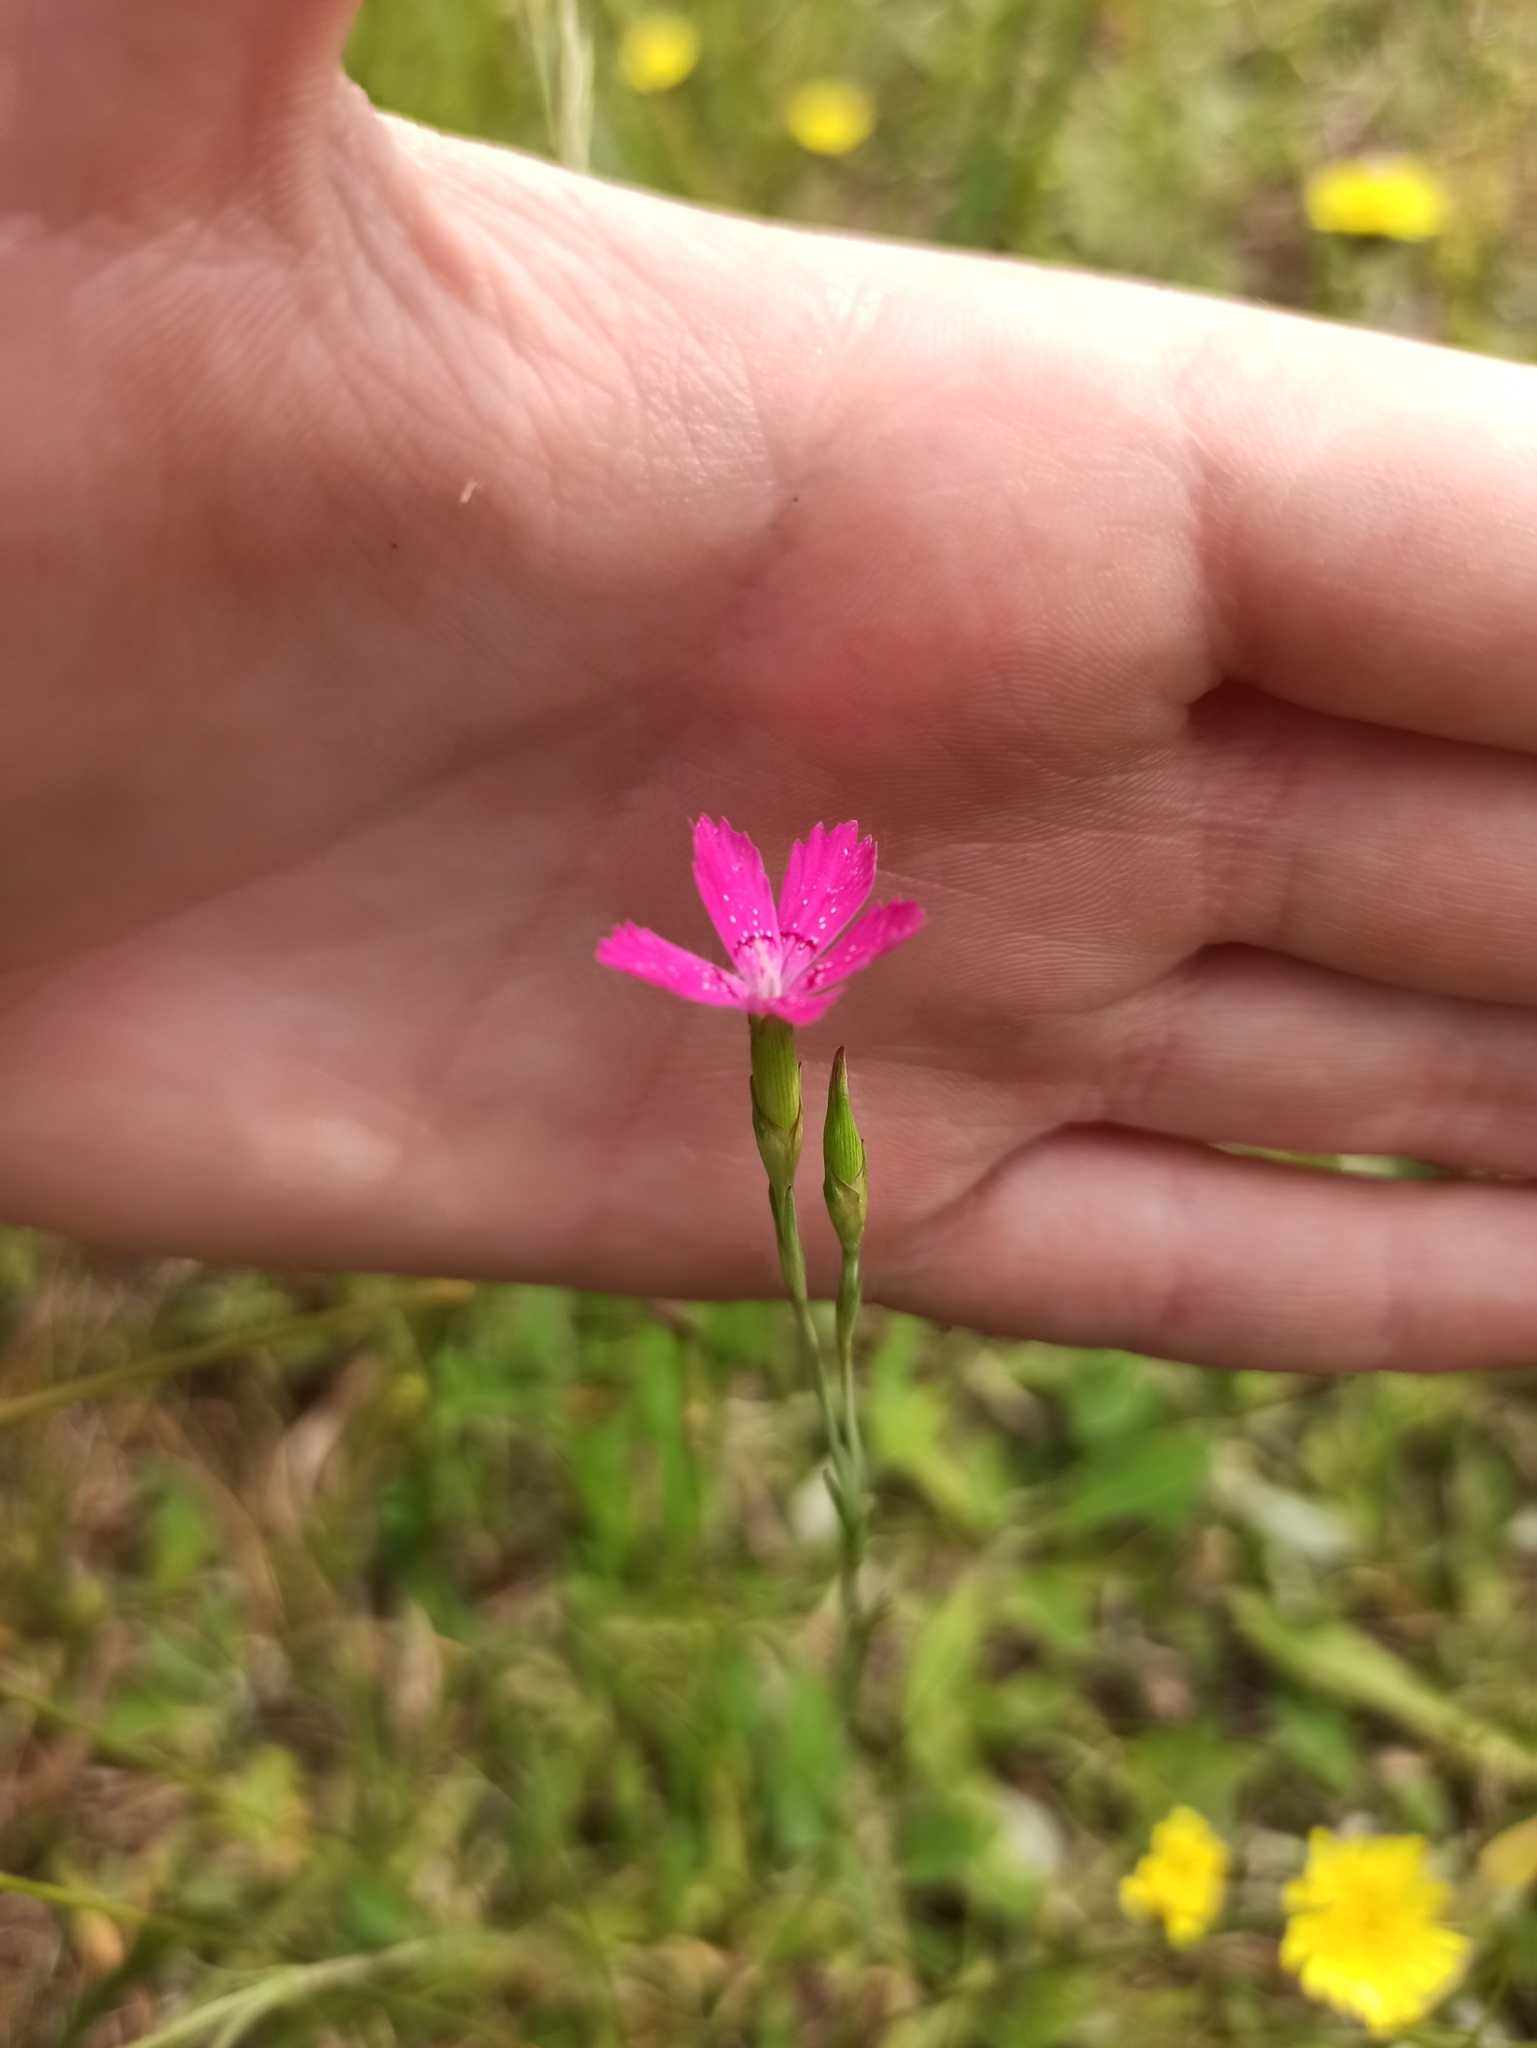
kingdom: Plantae
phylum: Tracheophyta
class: Magnoliopsida
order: Caryophyllales
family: Caryophyllaceae
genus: Dianthus
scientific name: Dianthus deltoides
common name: Maiden pink
